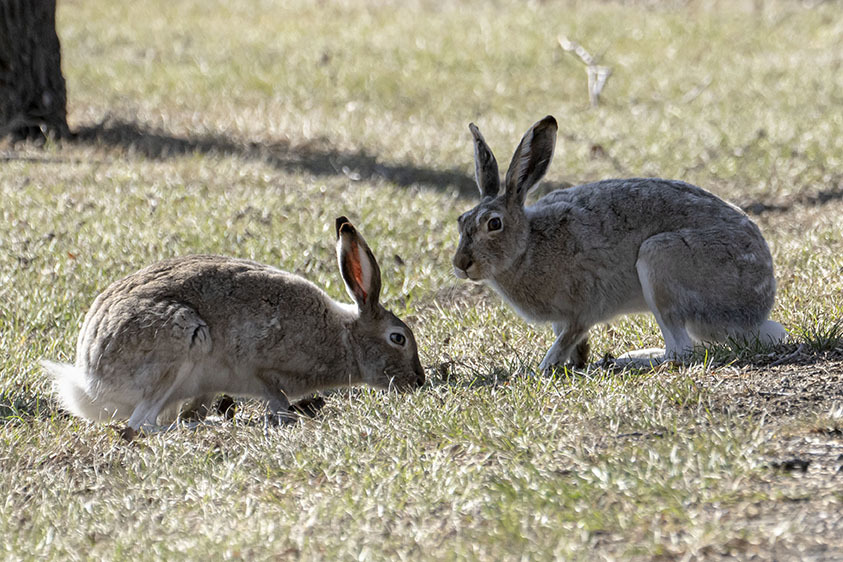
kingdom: Animalia
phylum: Chordata
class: Mammalia
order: Lagomorpha
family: Leporidae
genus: Lepus
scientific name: Lepus townsendii
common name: White-tailed jackrabbit
